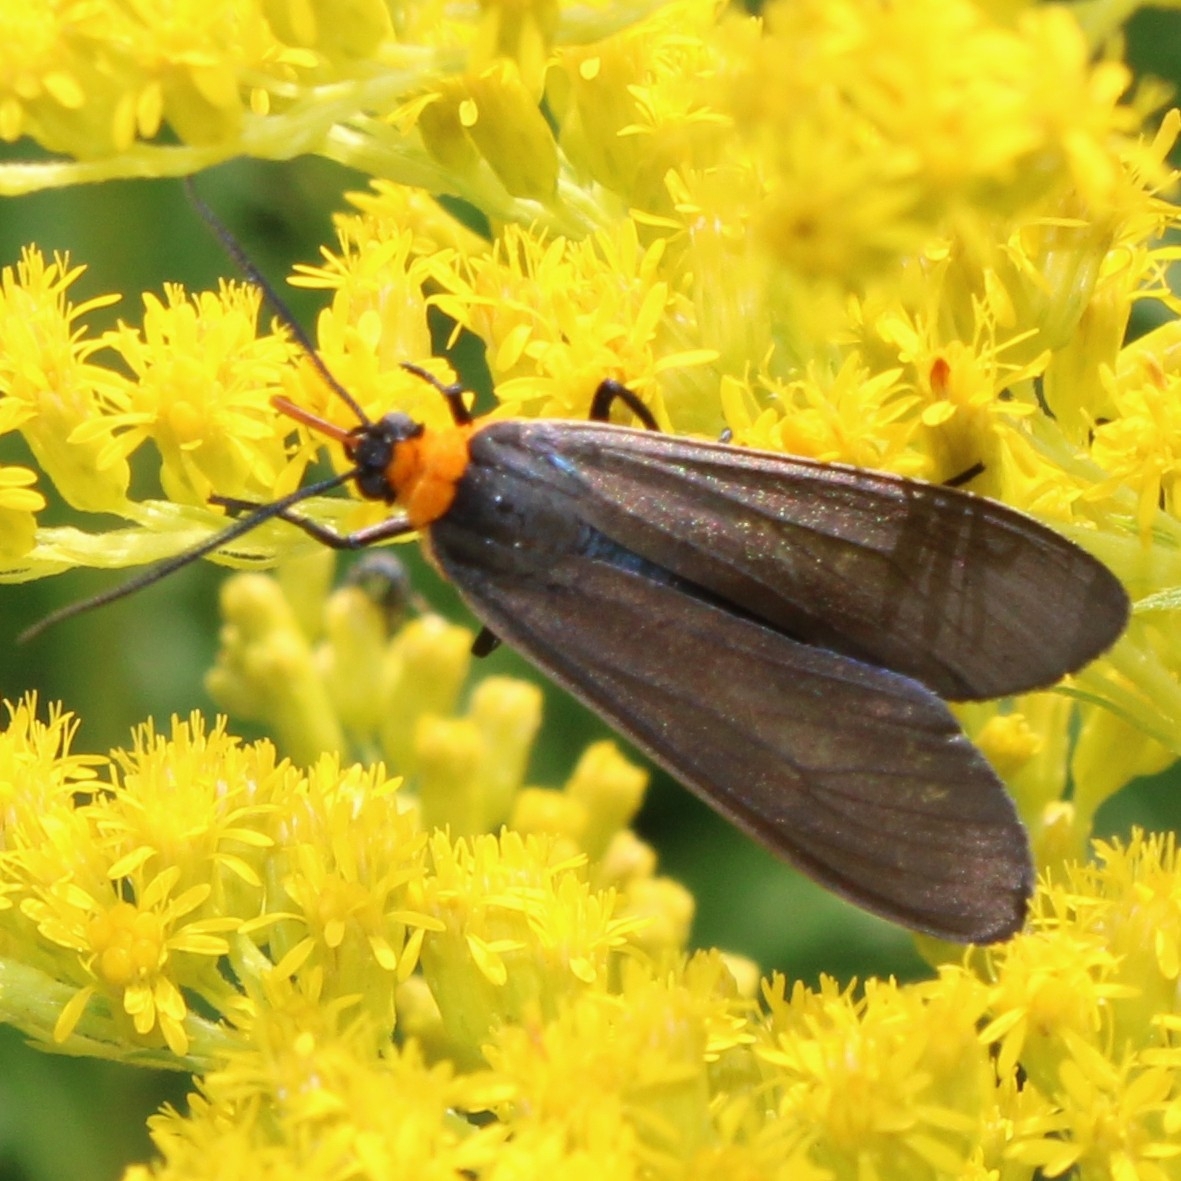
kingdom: Animalia
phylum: Arthropoda
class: Insecta
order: Lepidoptera
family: Erebidae
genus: Cisseps
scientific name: Cisseps fulvicollis
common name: Yellow-collared scape moth
